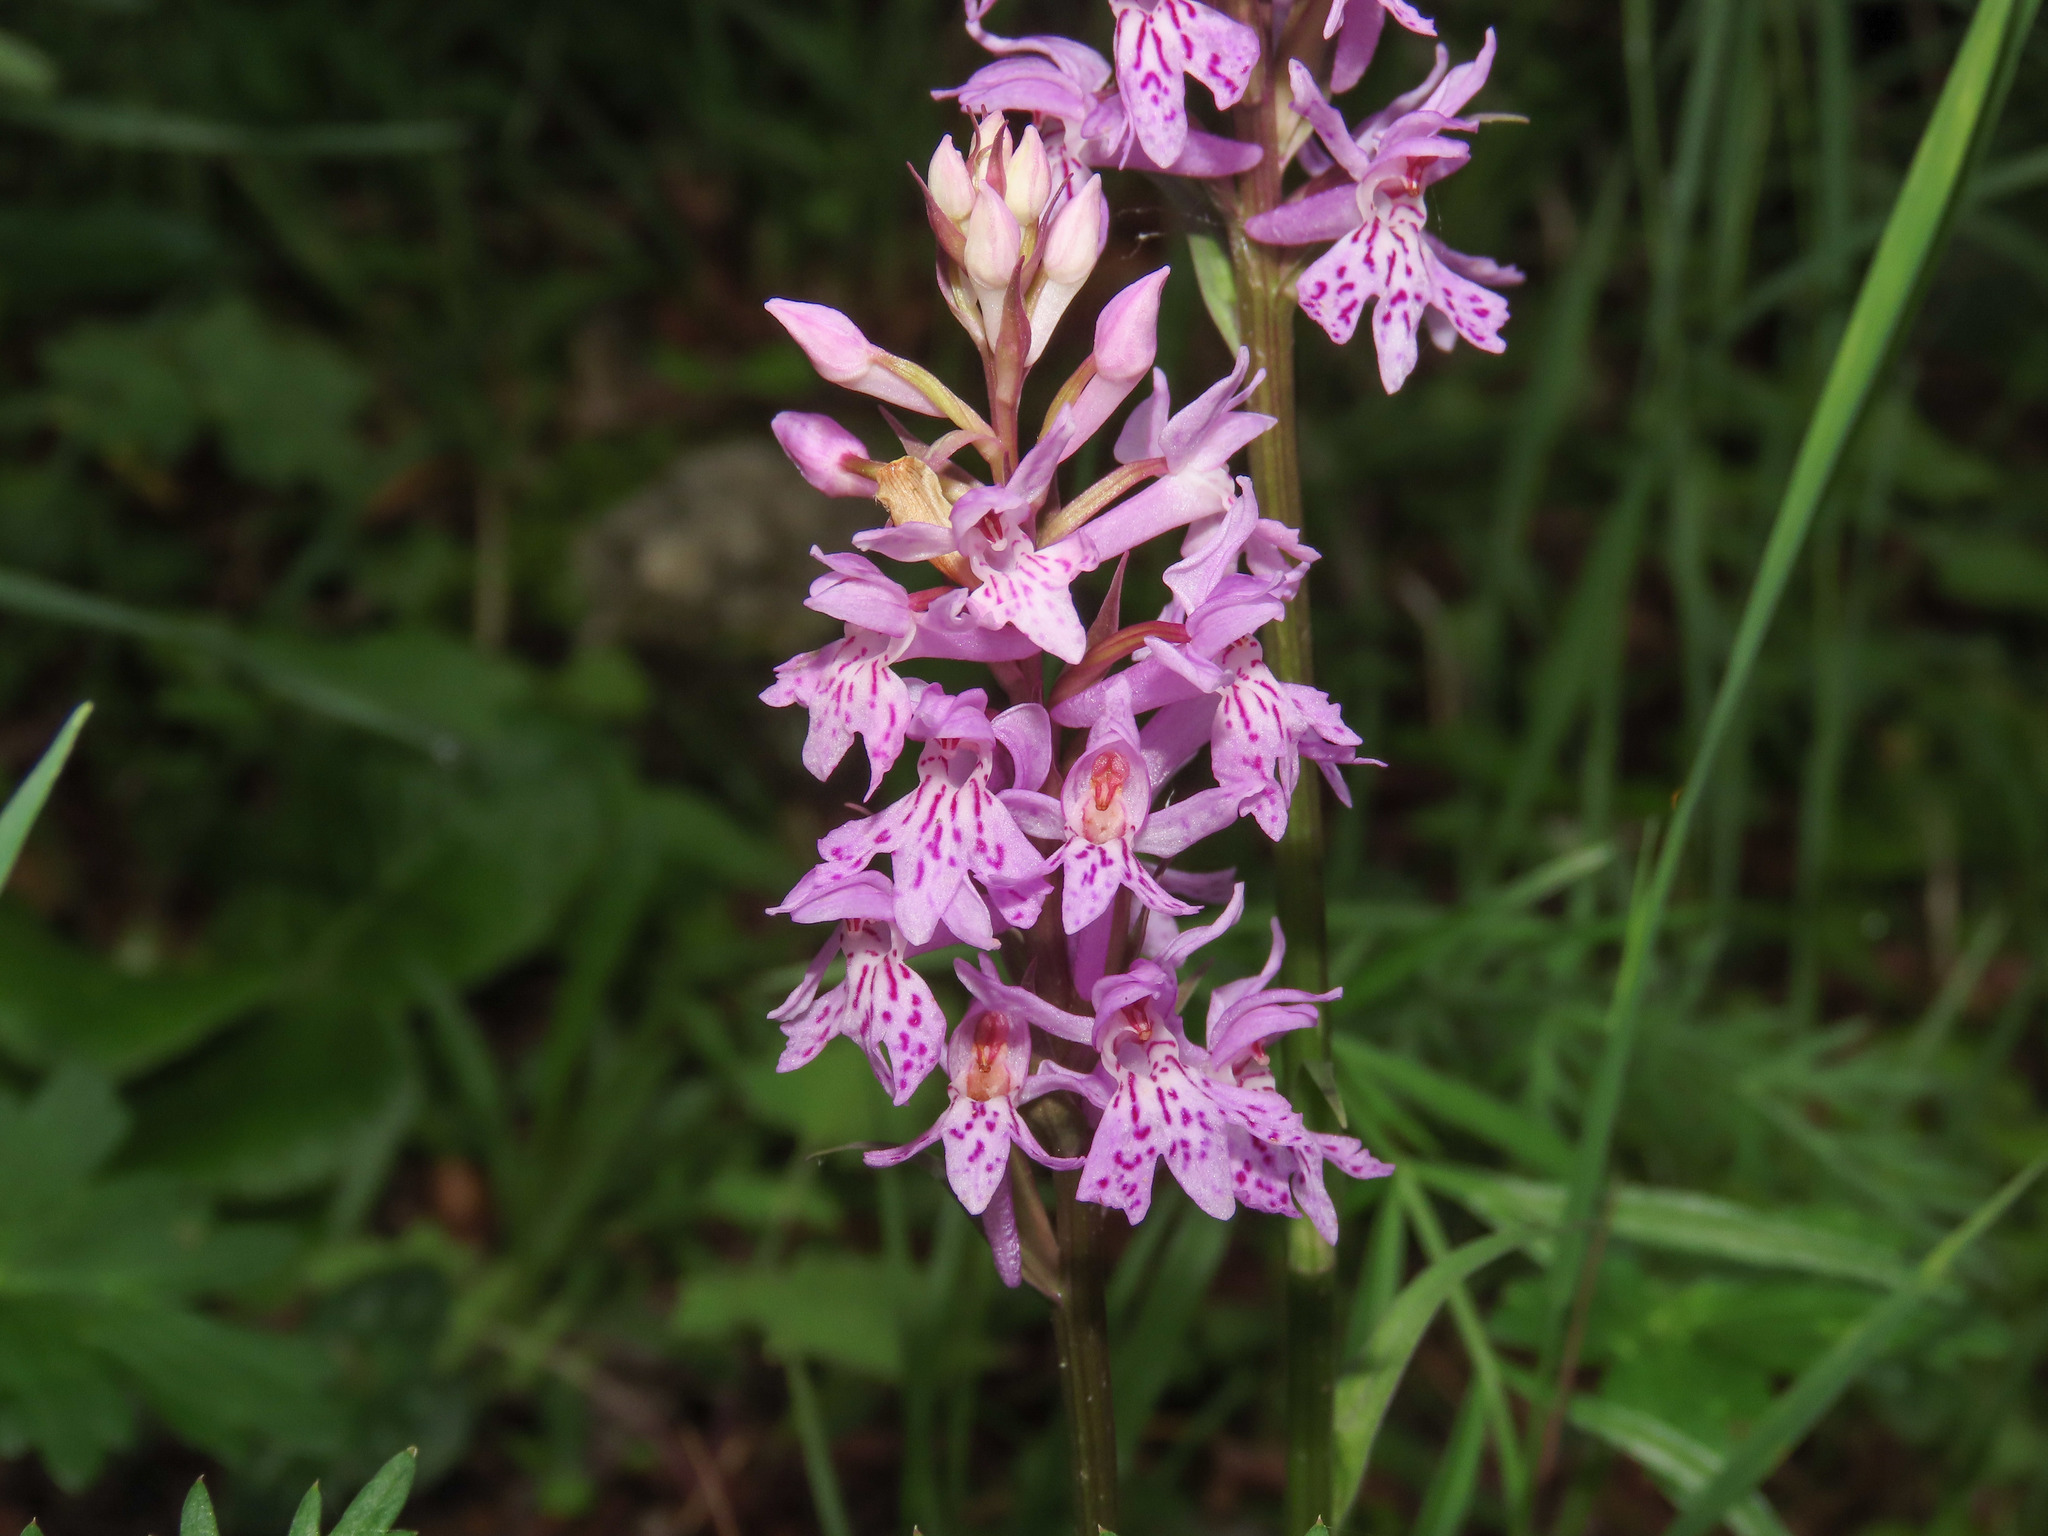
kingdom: Plantae
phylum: Tracheophyta
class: Liliopsida
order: Asparagales
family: Orchidaceae
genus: Dactylorhiza
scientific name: Dactylorhiza maculata
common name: Heath spotted-orchid
